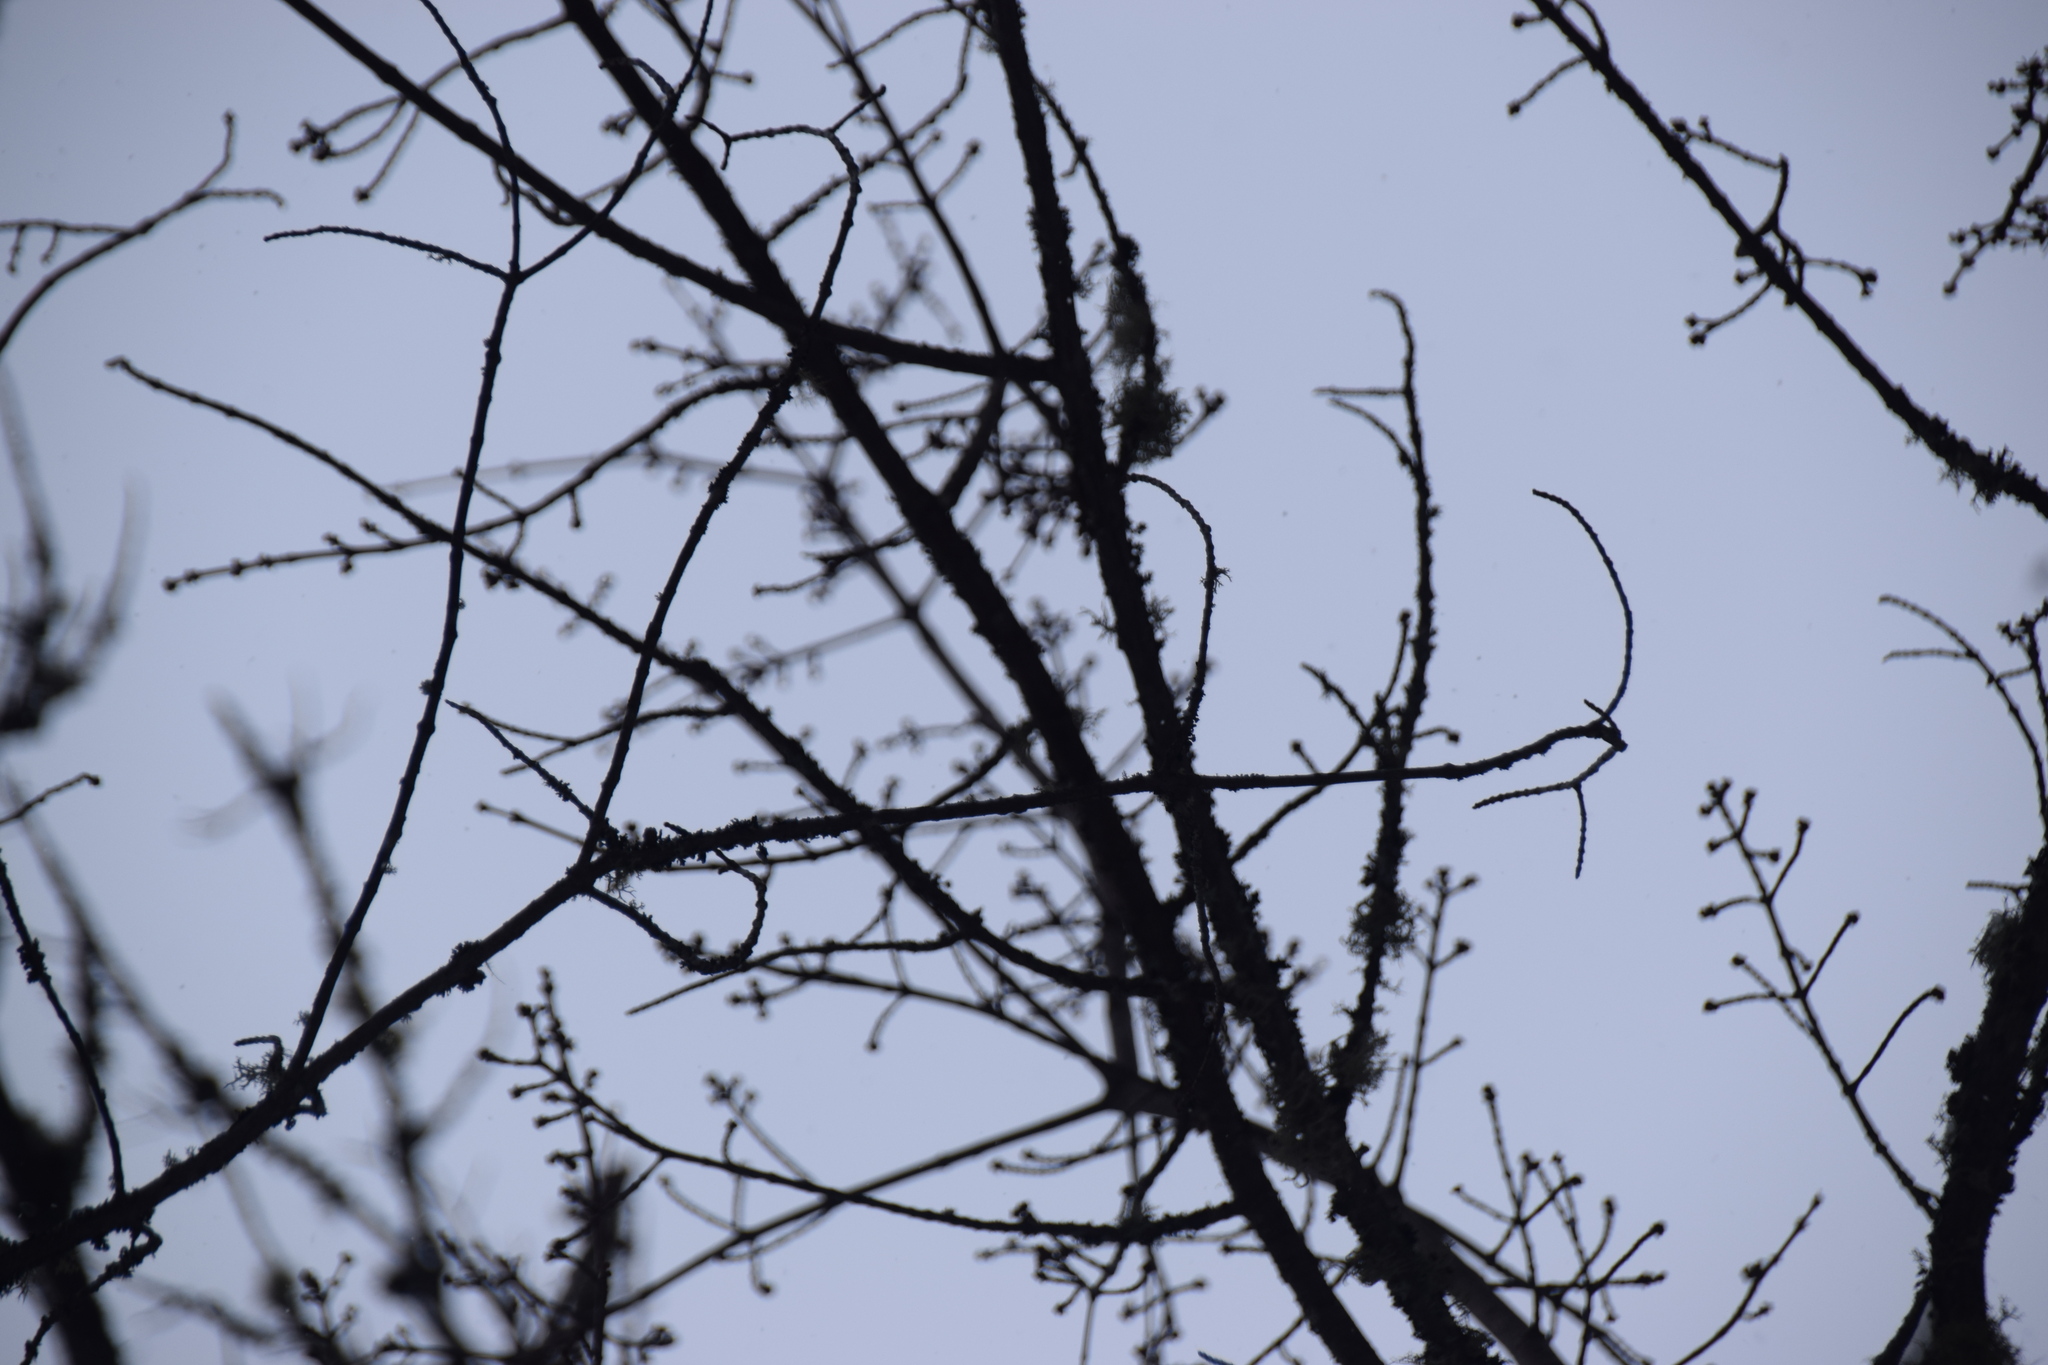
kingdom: Plantae
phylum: Tracheophyta
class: Magnoliopsida
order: Sapindales
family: Sapindaceae
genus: Acer
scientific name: Acer rubrum
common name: Red maple
